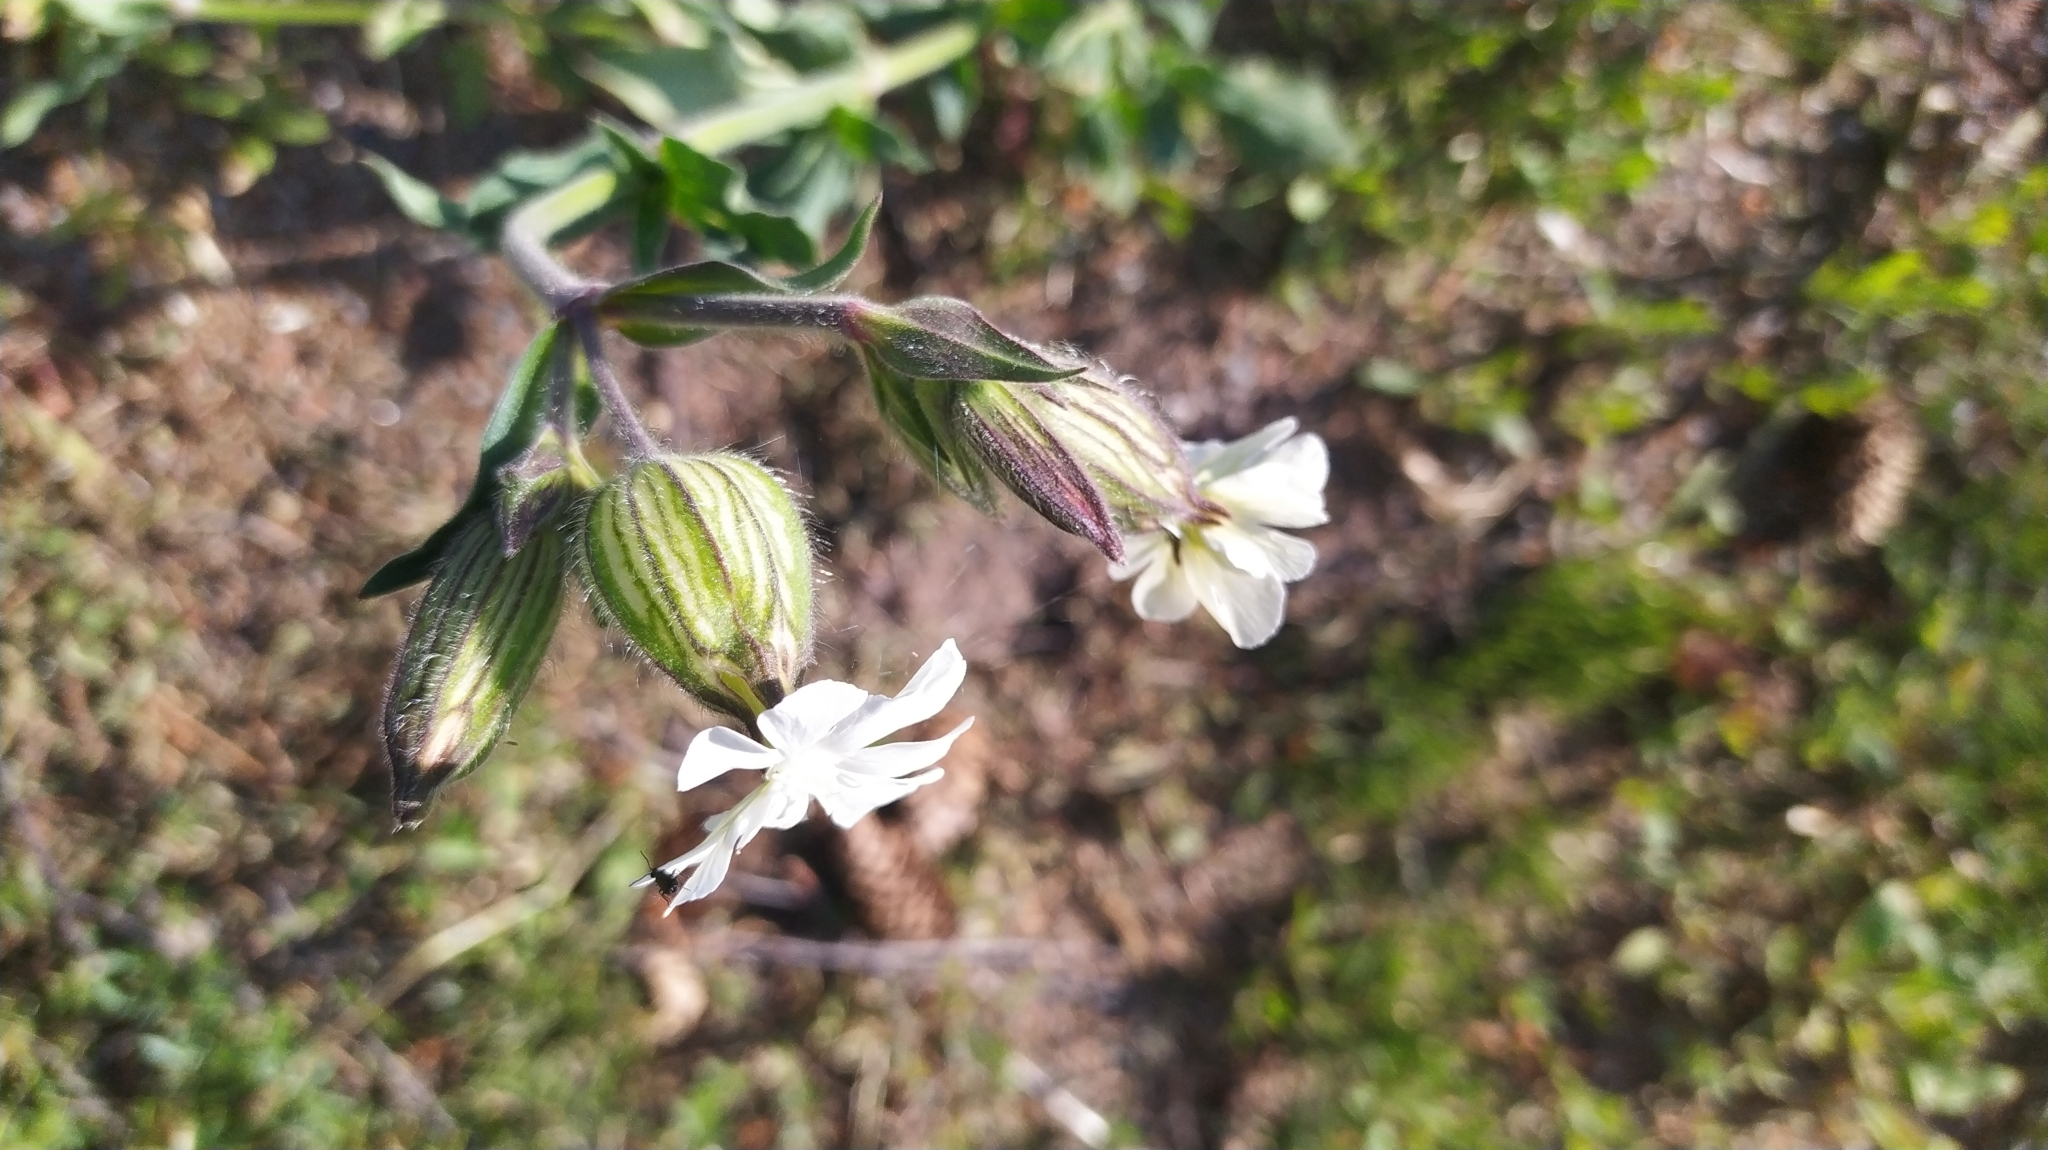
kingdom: Plantae
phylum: Tracheophyta
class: Magnoliopsida
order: Caryophyllales
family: Caryophyllaceae
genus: Silene
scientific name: Silene latifolia
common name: White campion
